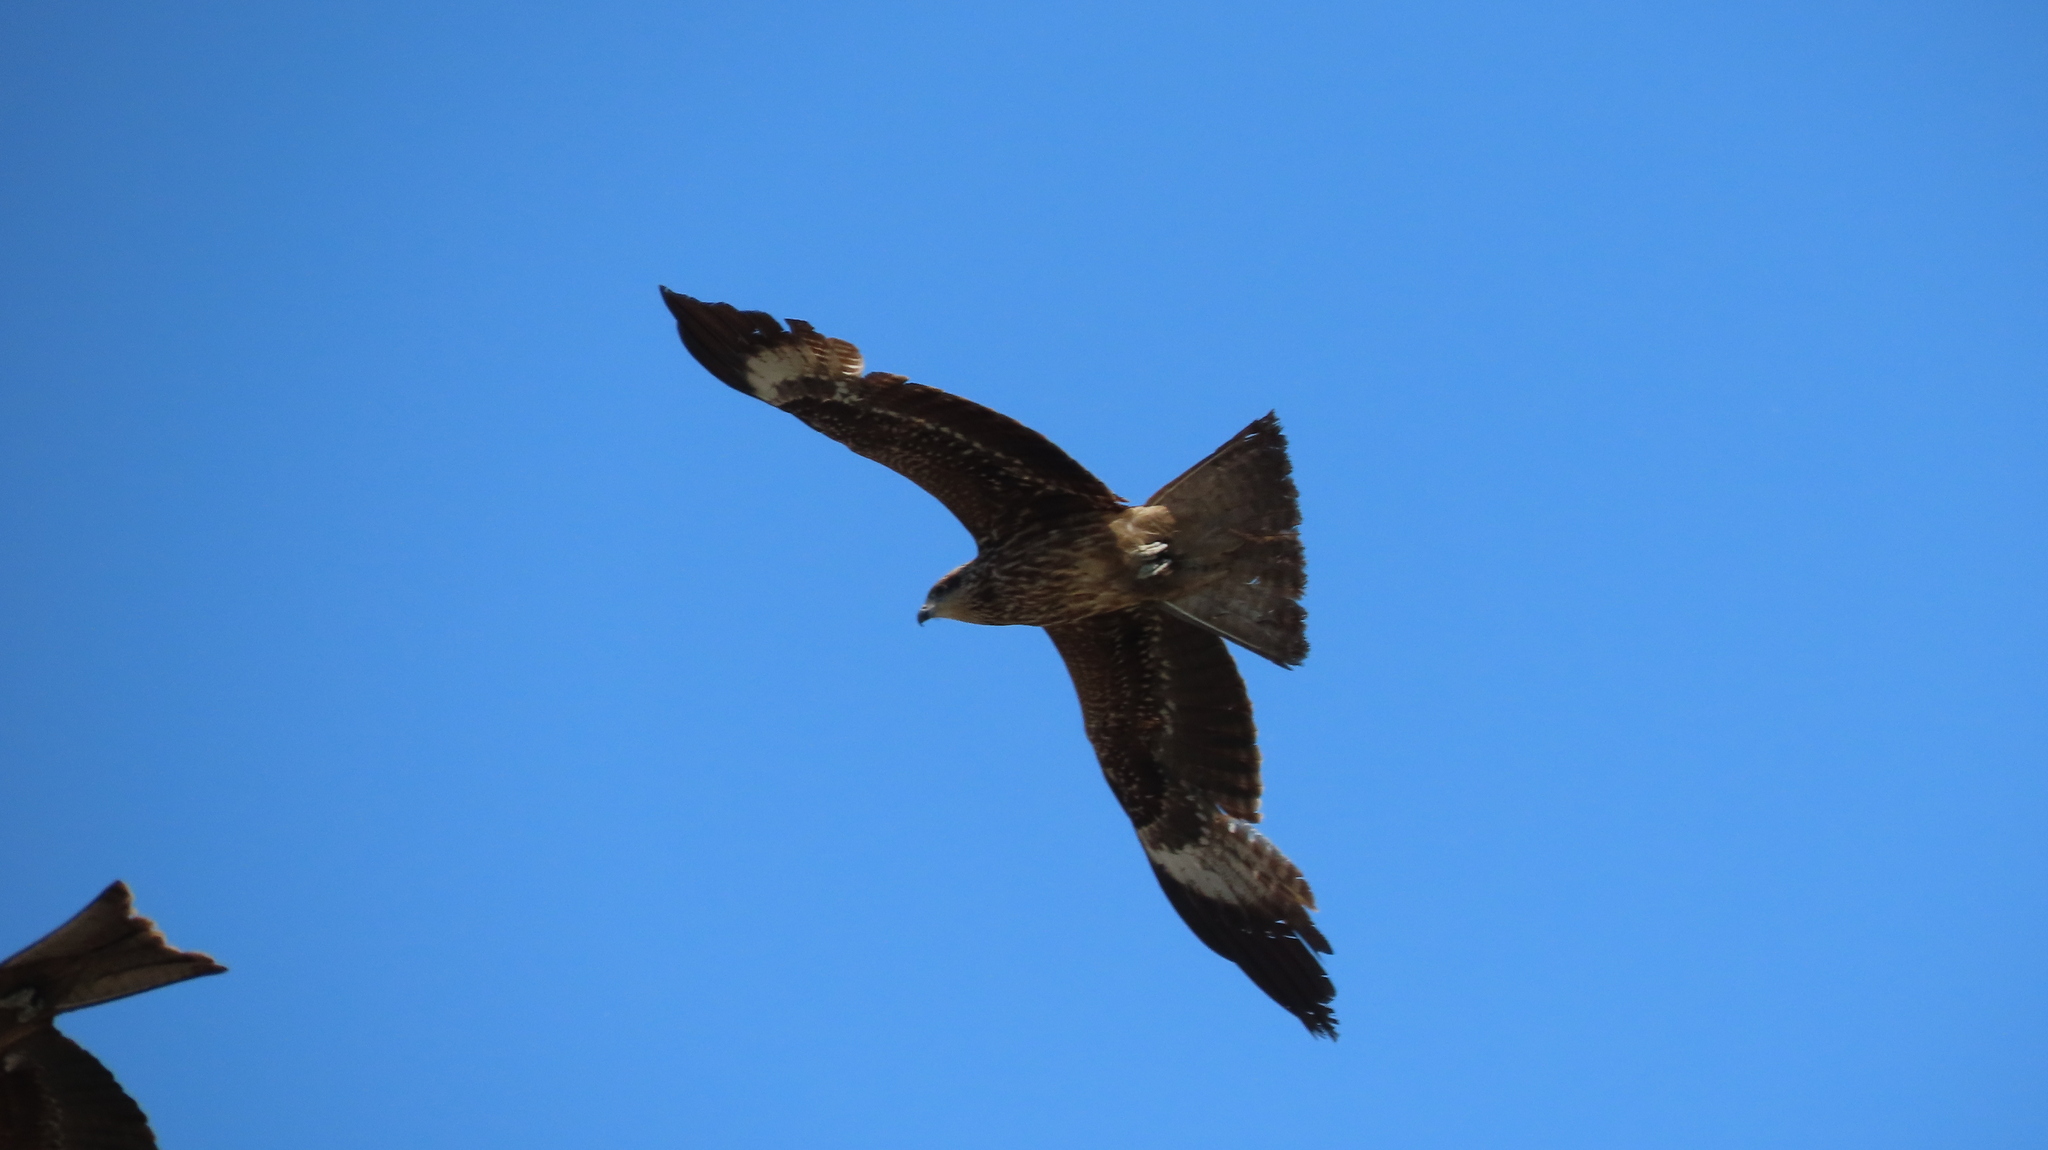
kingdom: Animalia
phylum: Chordata
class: Aves
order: Accipitriformes
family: Accipitridae
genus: Milvus
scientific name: Milvus migrans
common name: Black kite
